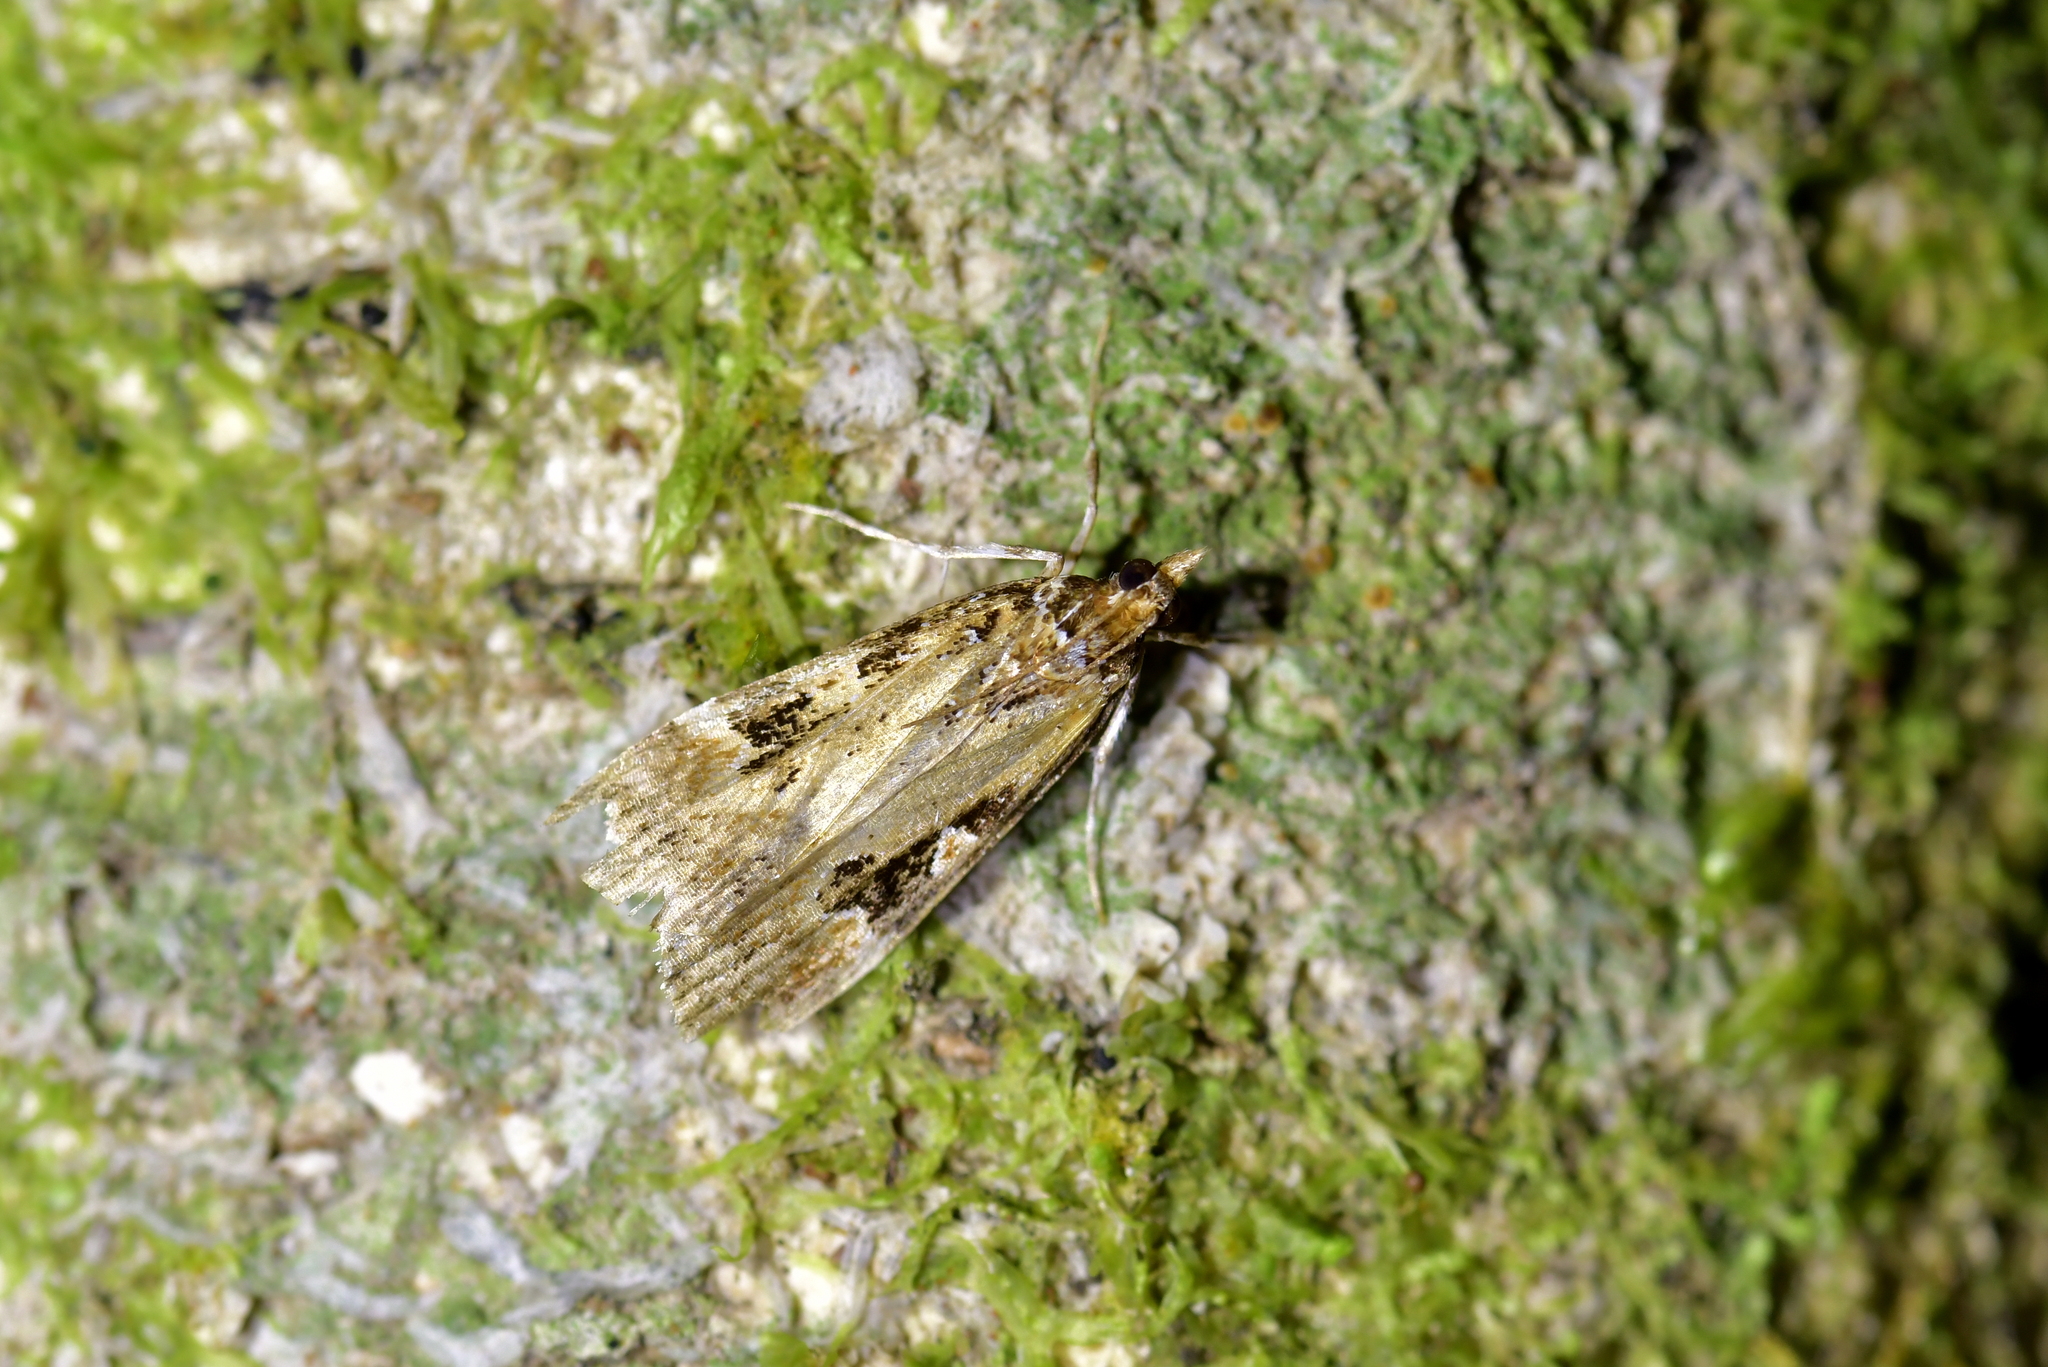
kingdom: Animalia
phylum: Arthropoda
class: Insecta
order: Lepidoptera
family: Crambidae
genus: Scoparia
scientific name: Scoparia ustimacula
